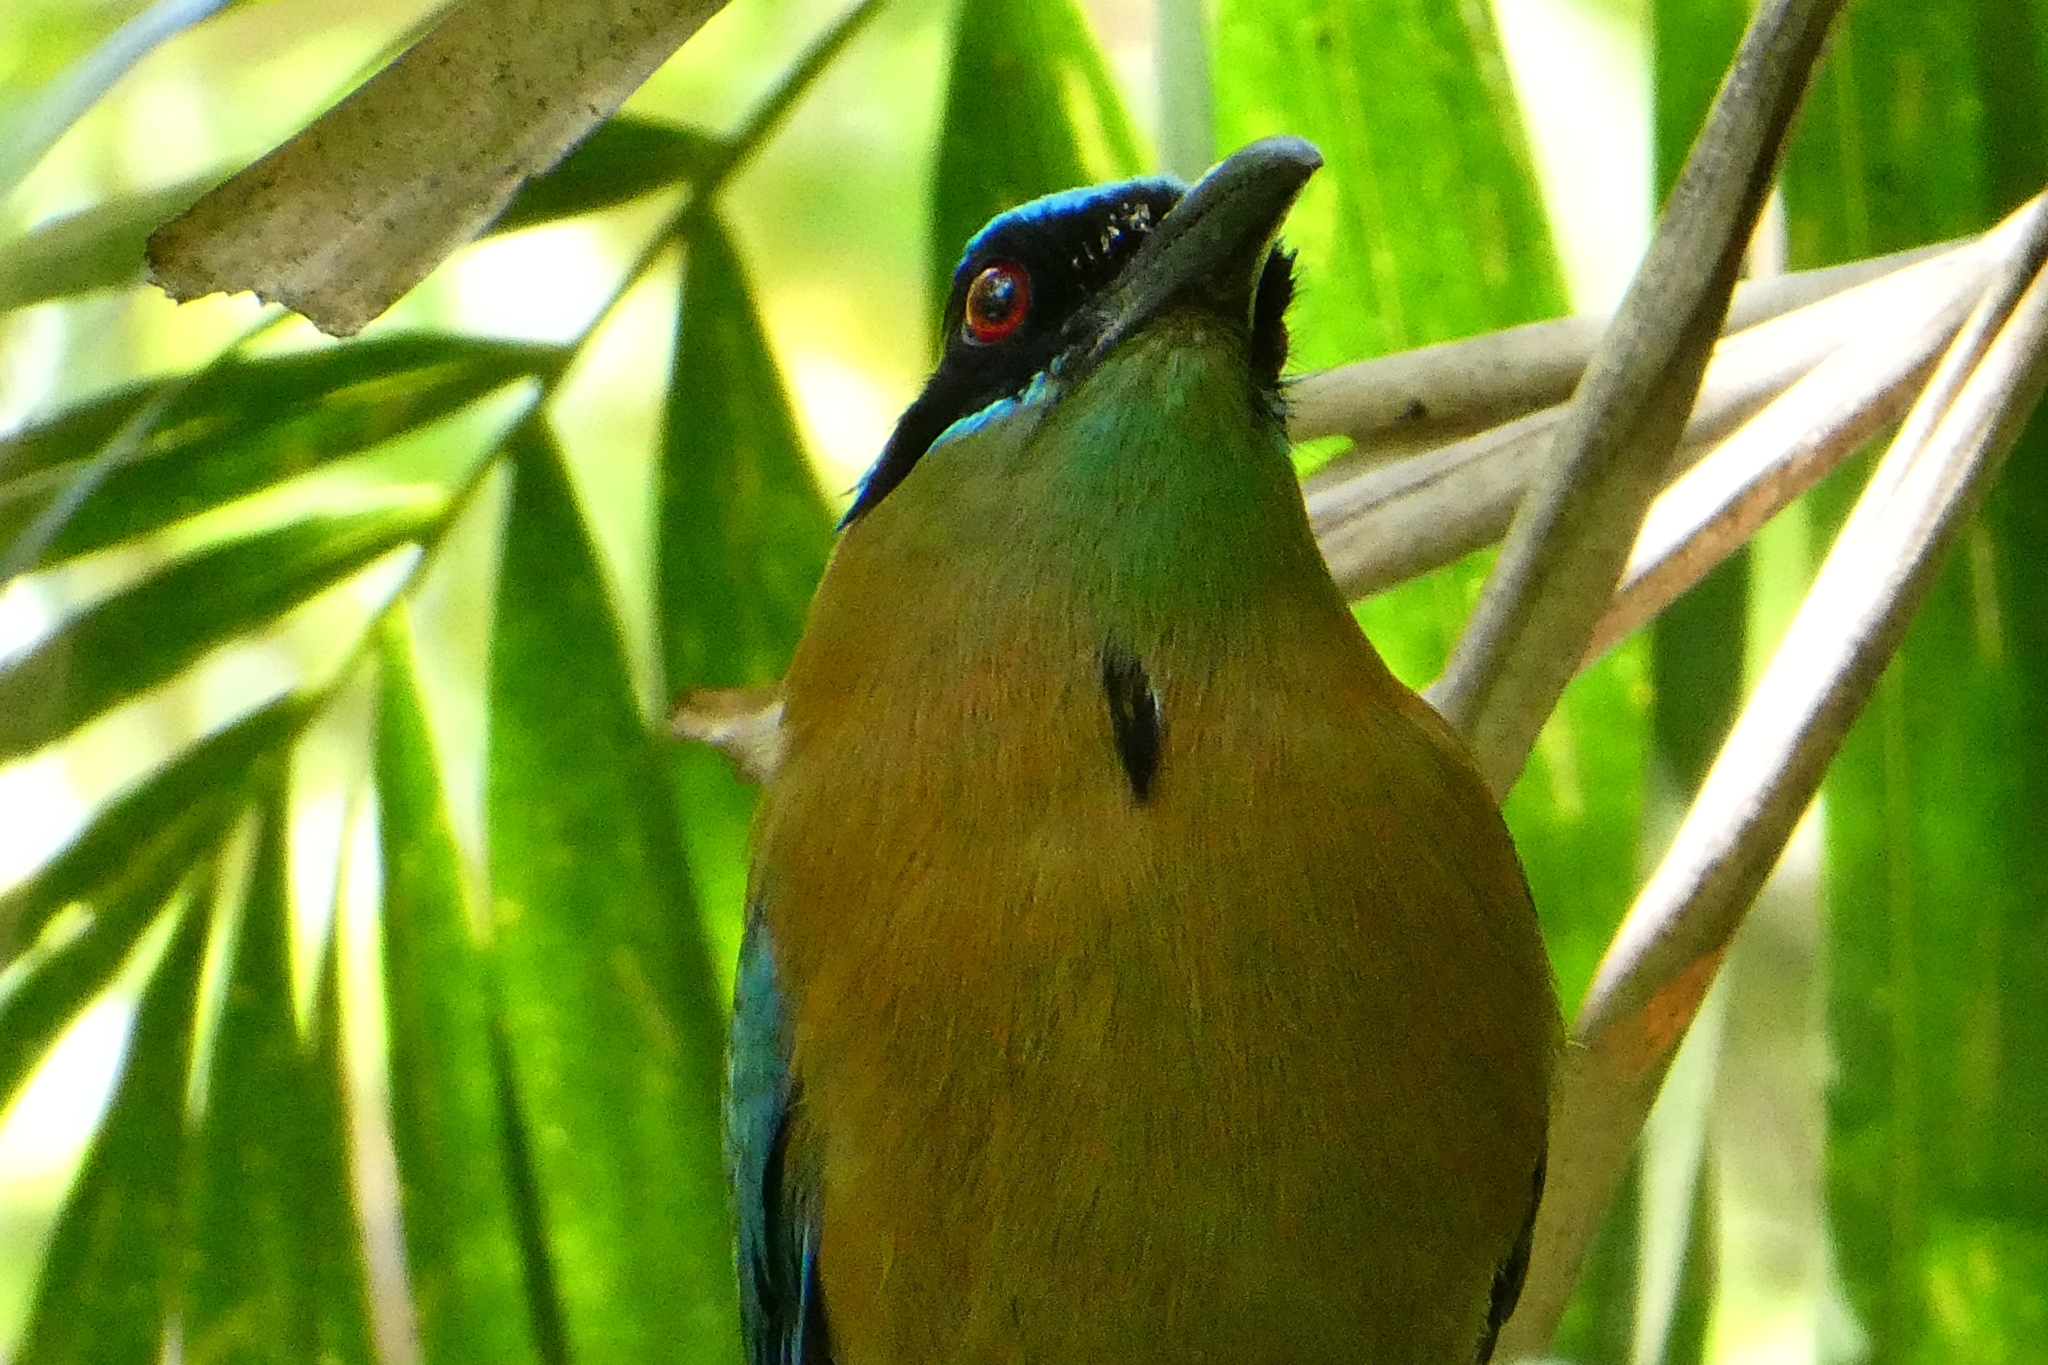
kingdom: Animalia
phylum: Chordata
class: Aves
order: Coraciiformes
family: Momotidae
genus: Momotus
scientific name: Momotus lessonii
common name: Lesson's motmot
